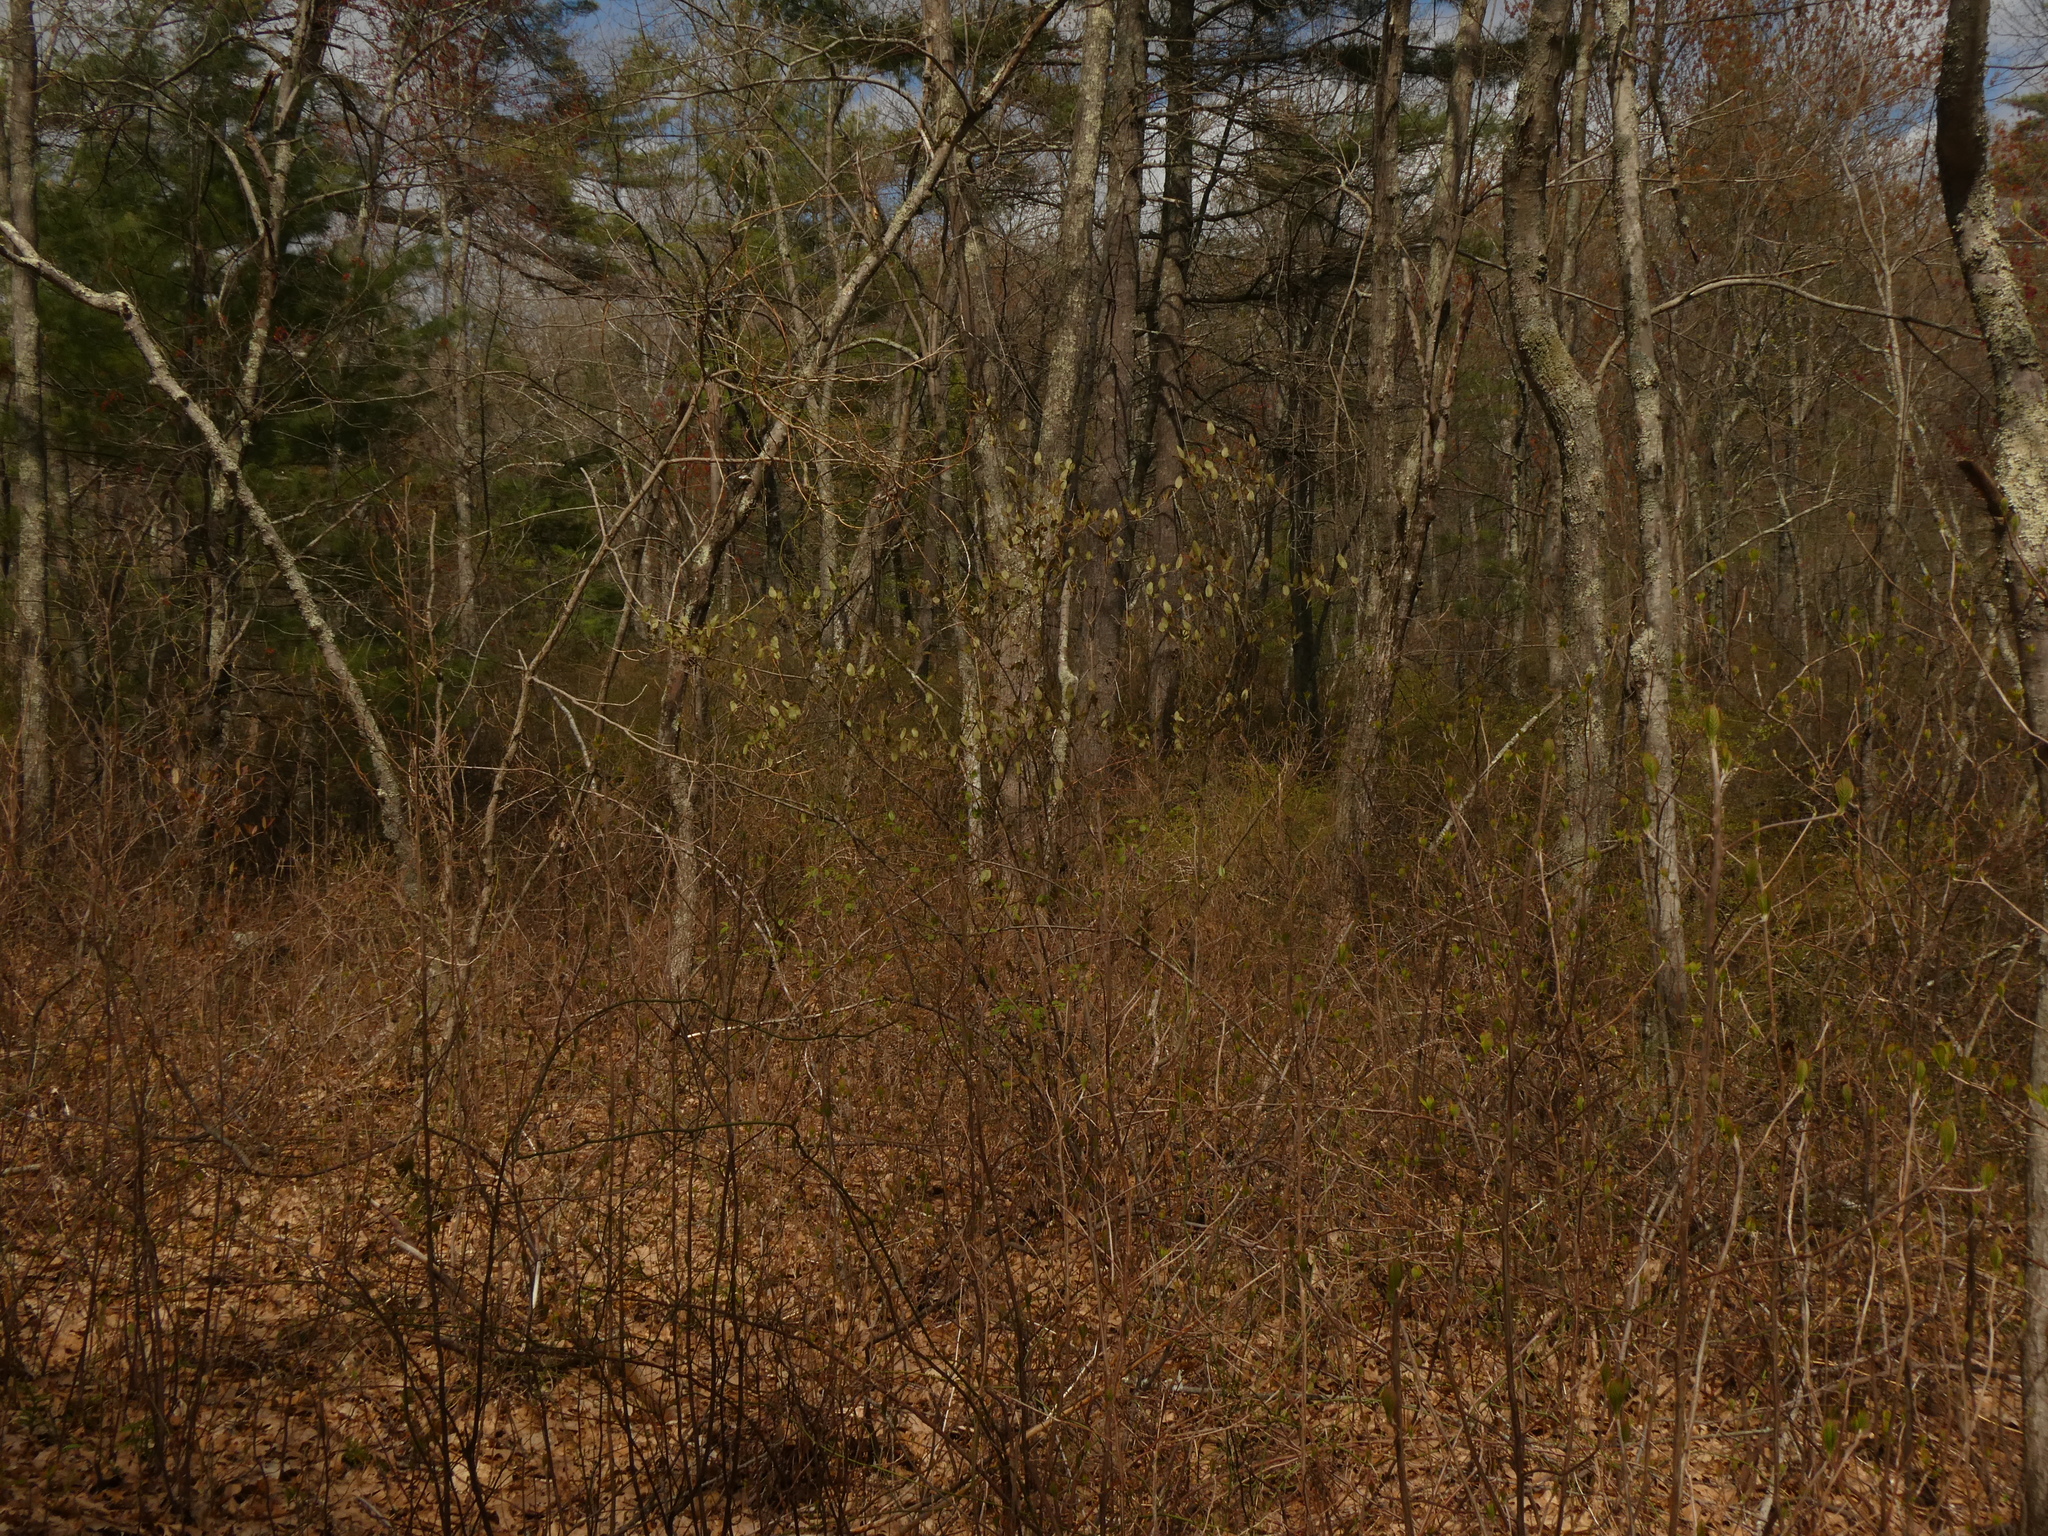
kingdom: Plantae
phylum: Tracheophyta
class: Magnoliopsida
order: Dipsacales
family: Viburnaceae
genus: Viburnum
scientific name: Viburnum lentago
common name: Black haw
